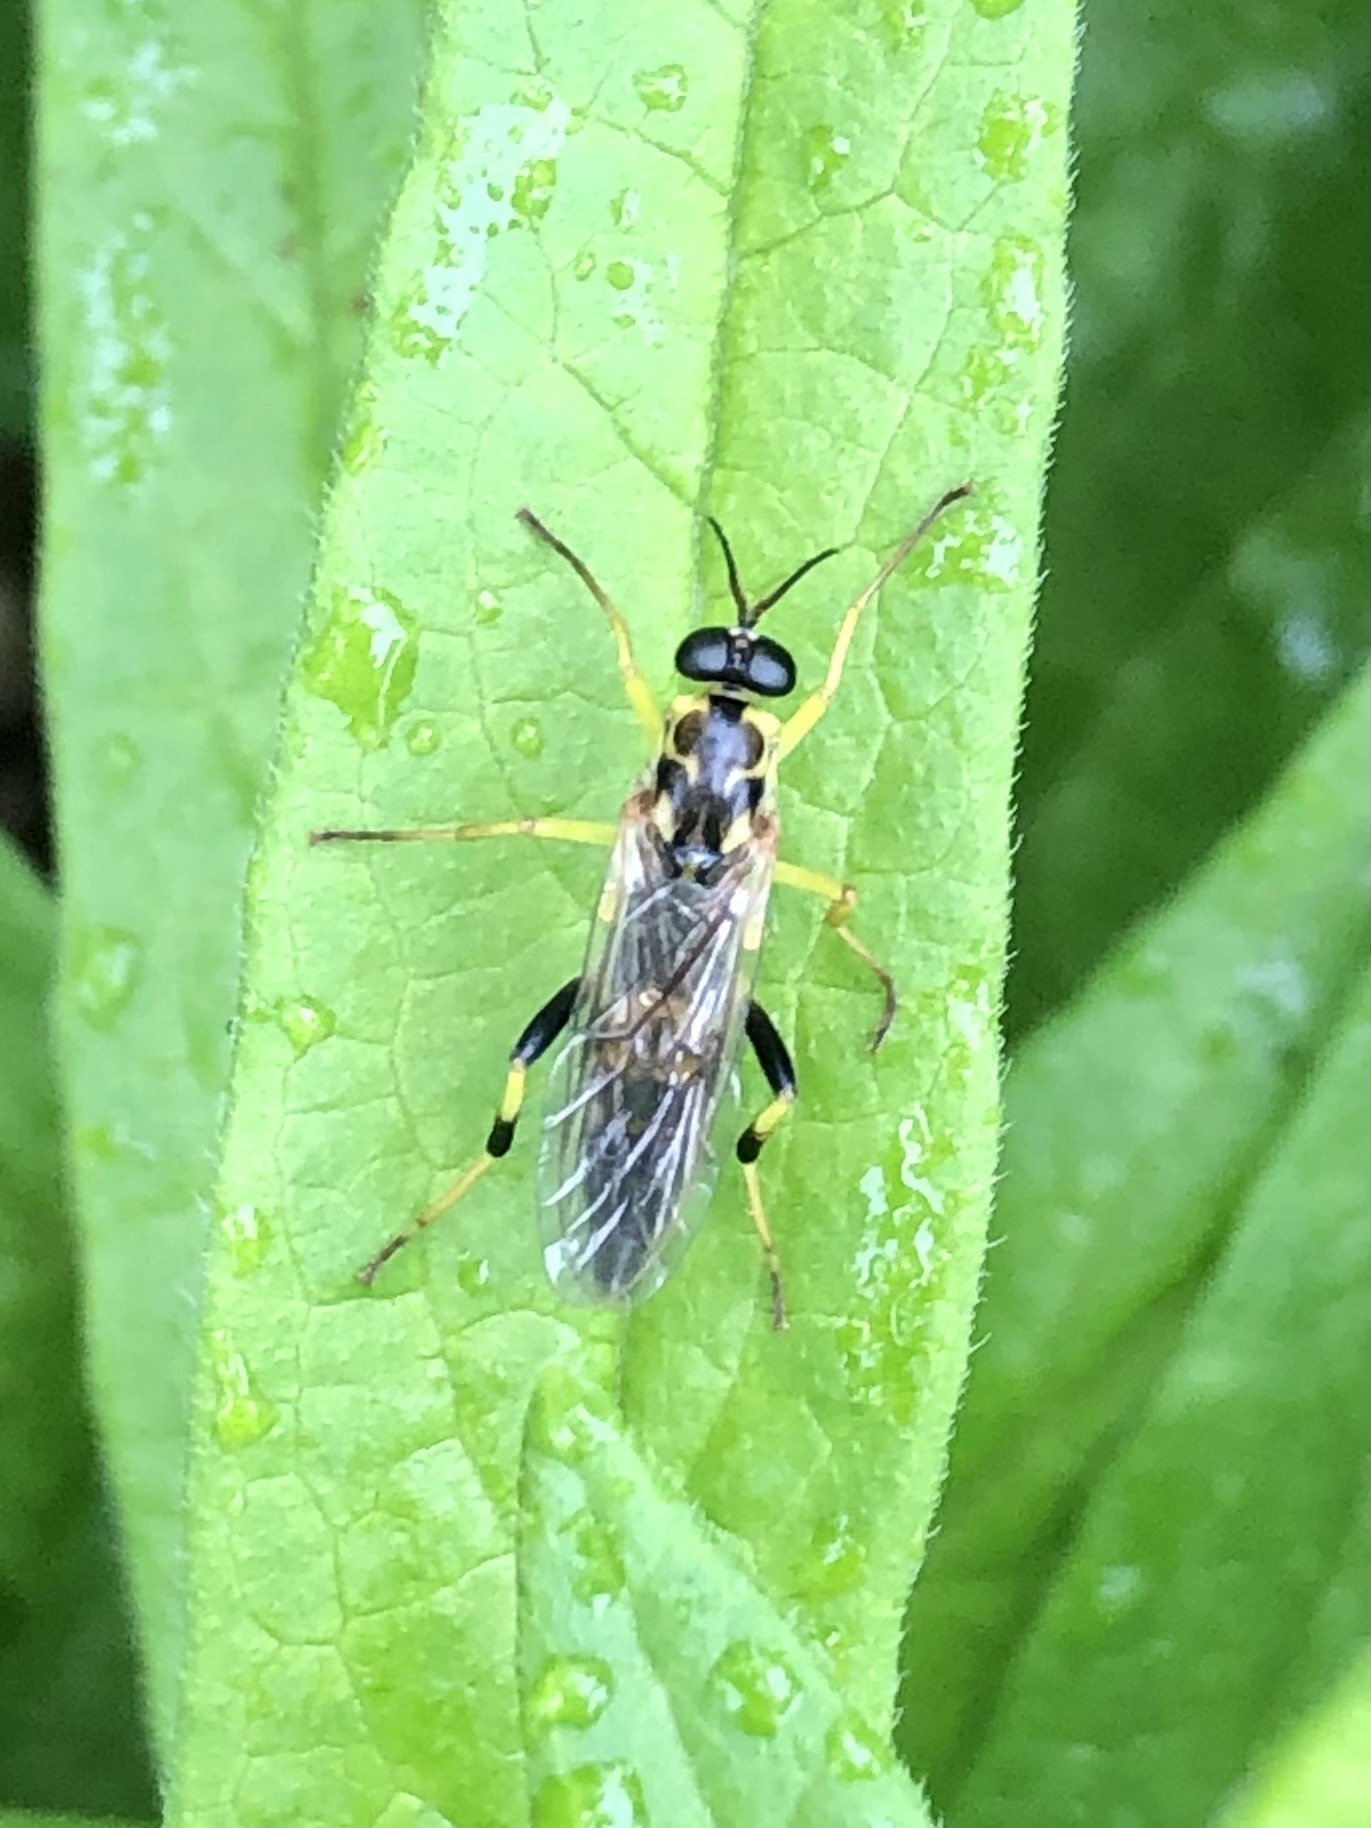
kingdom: Animalia
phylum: Arthropoda
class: Insecta
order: Diptera
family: Xylomyidae
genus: Xylomya
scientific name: Xylomya terminalis
